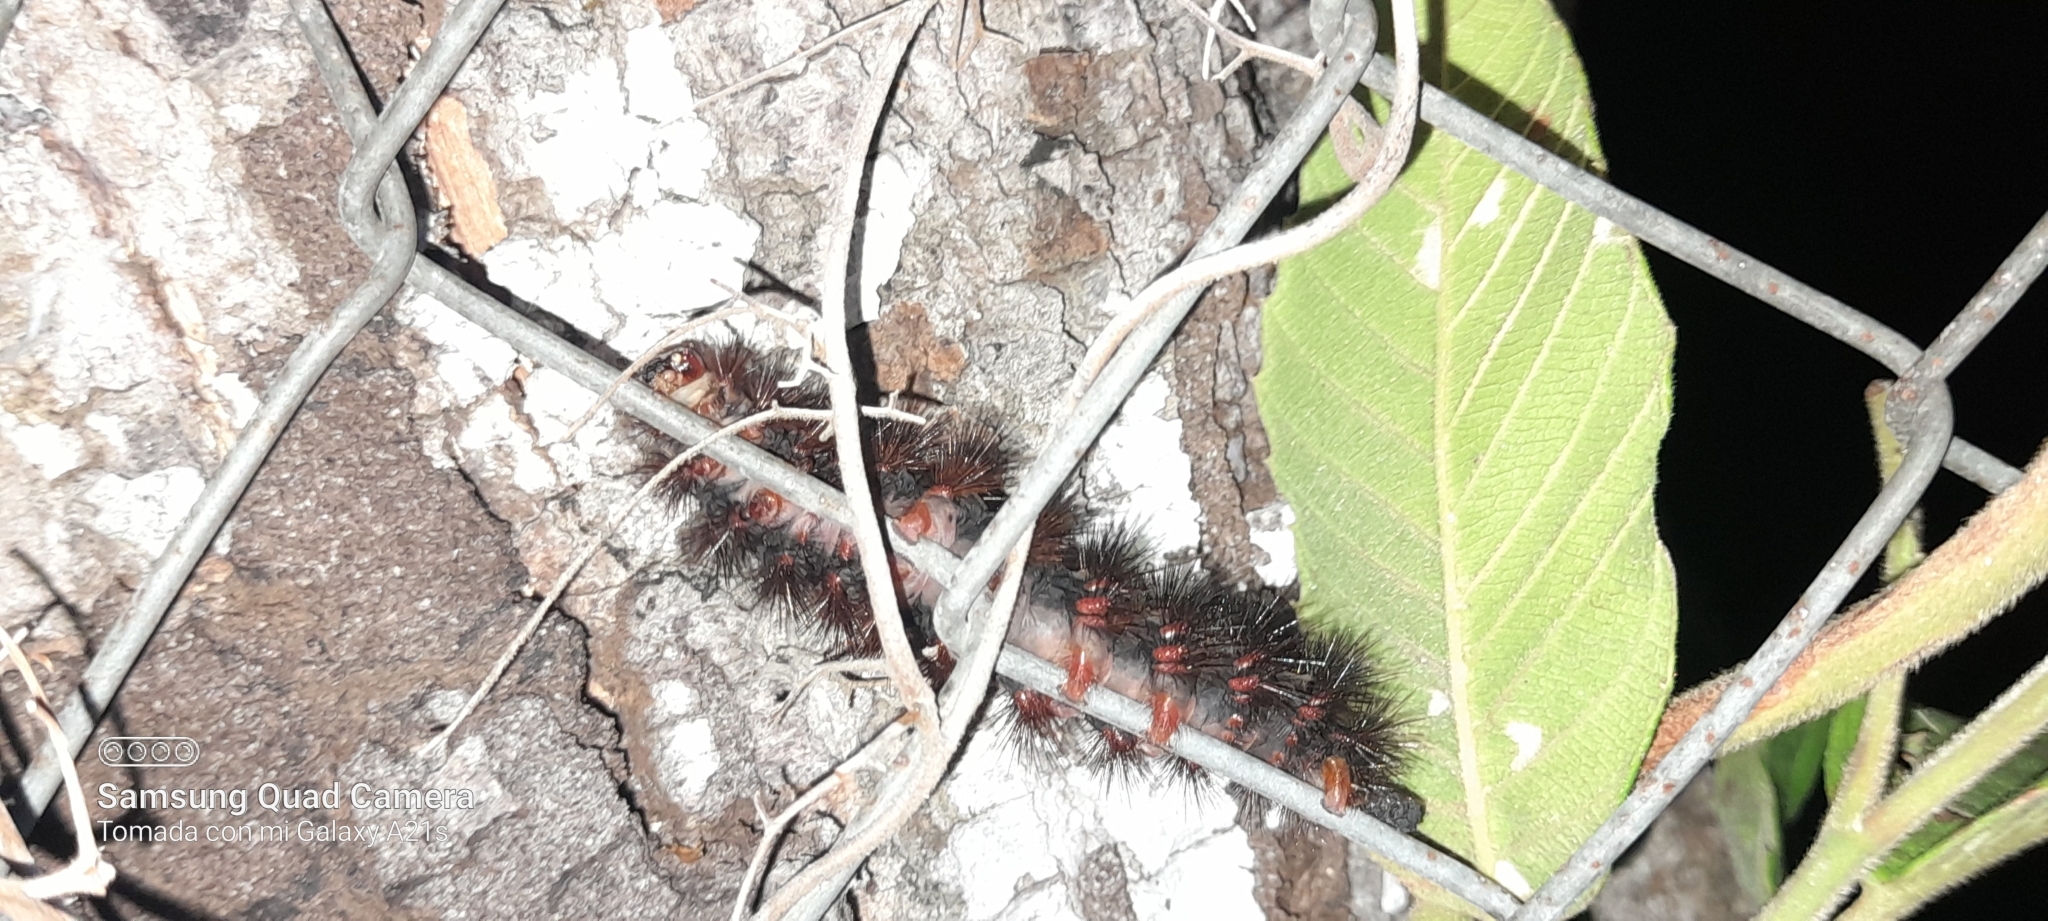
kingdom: Animalia
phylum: Arthropoda
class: Insecta
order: Lepidoptera
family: Erebidae
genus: Hypercompe
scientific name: Hypercompe scribonia
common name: Giant leopard moth
